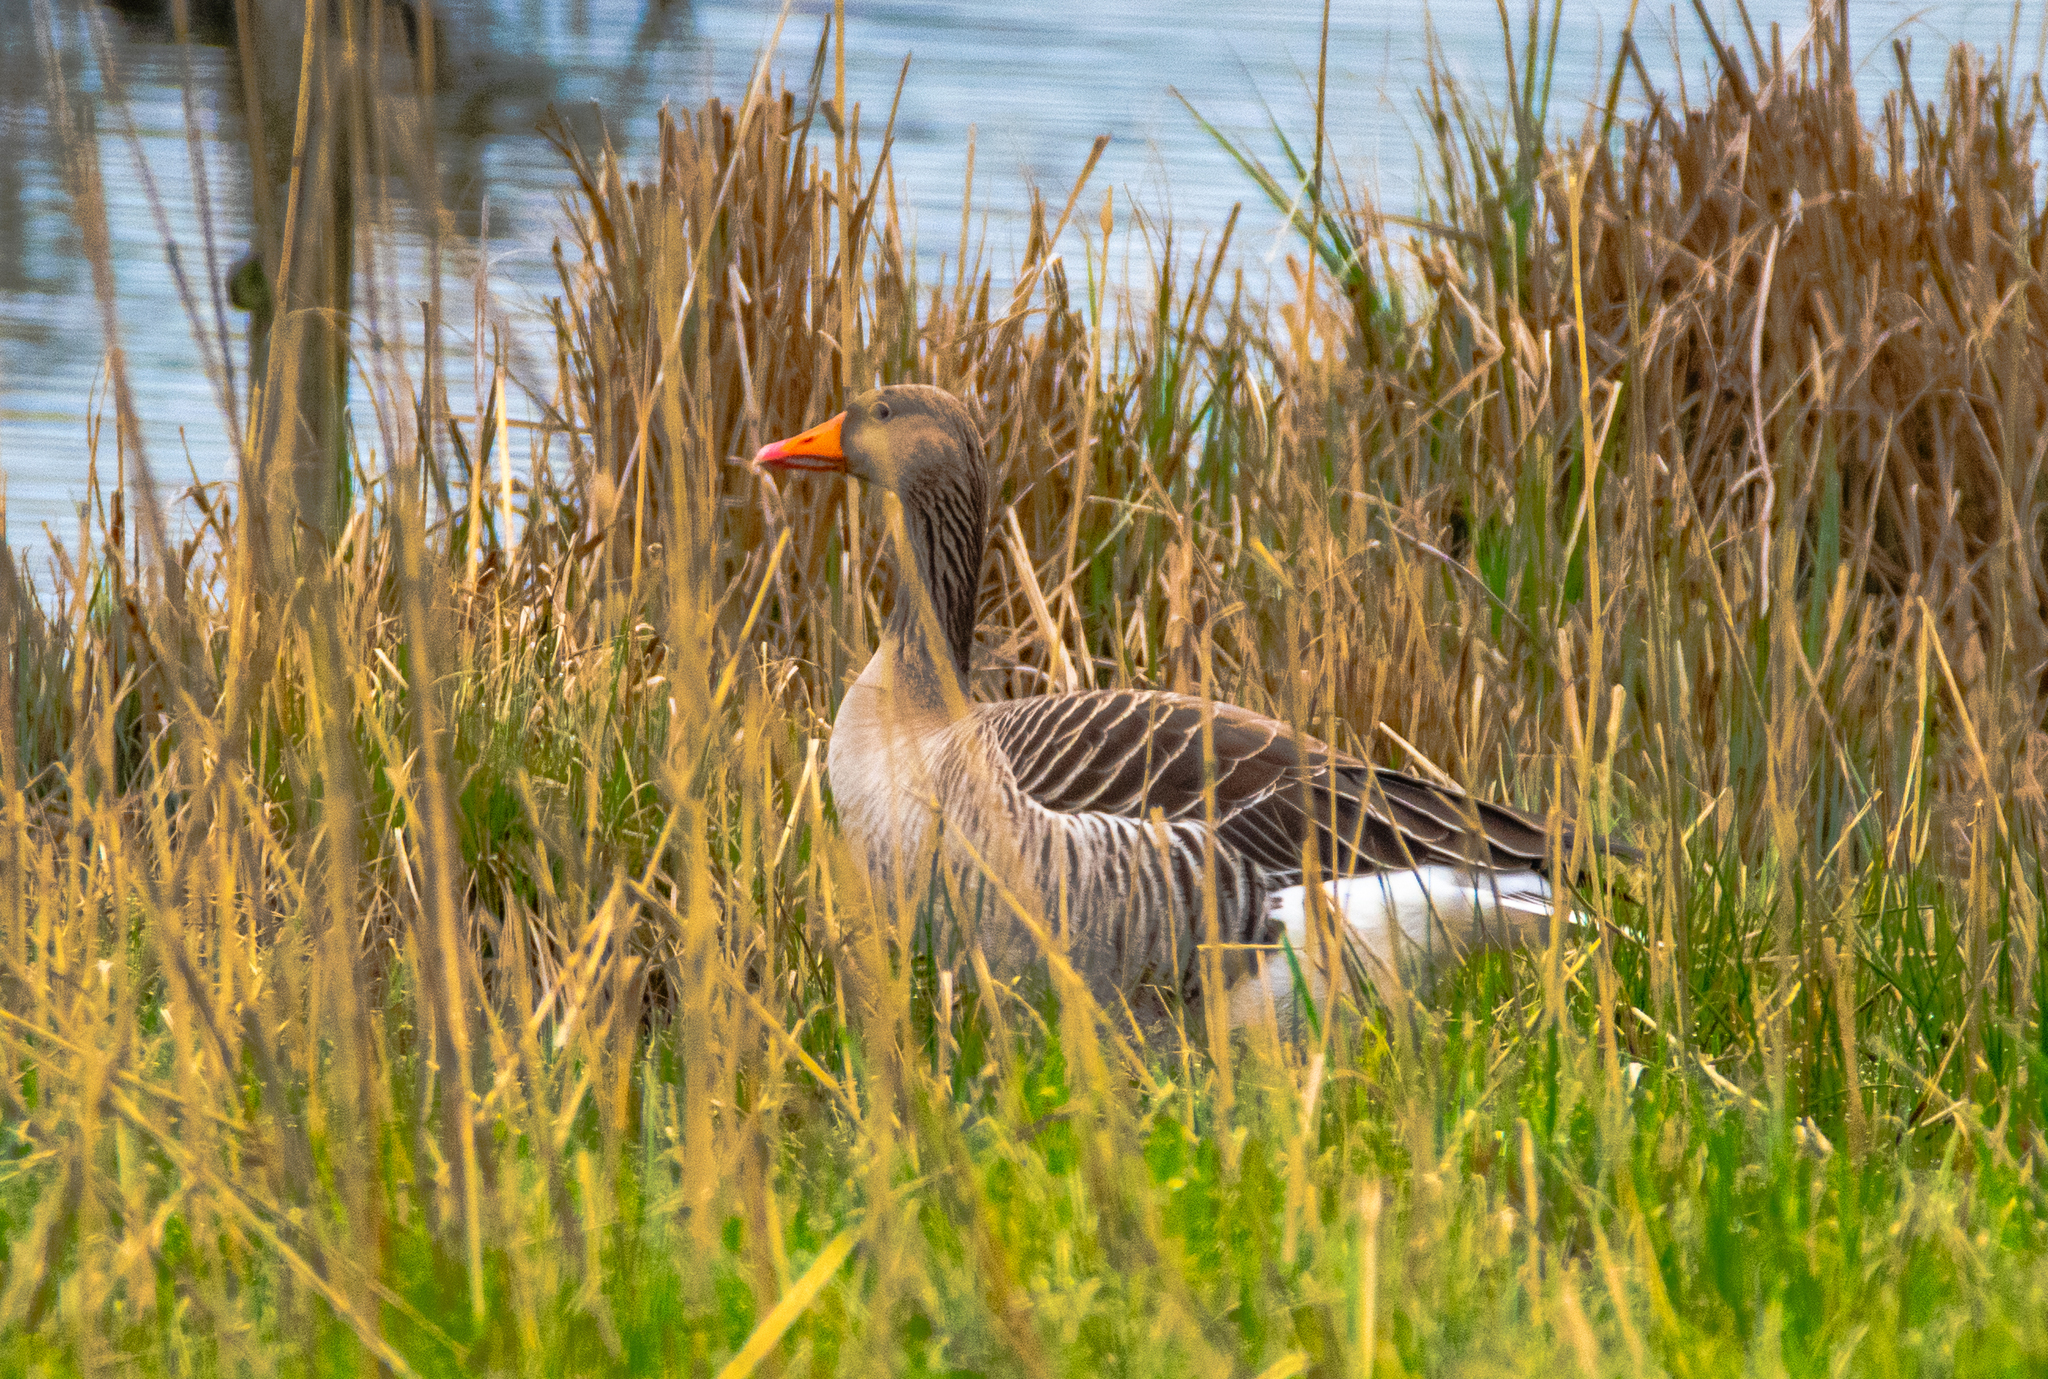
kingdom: Animalia
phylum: Chordata
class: Aves
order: Anseriformes
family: Anatidae
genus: Anser
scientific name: Anser anser
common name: Greylag goose
